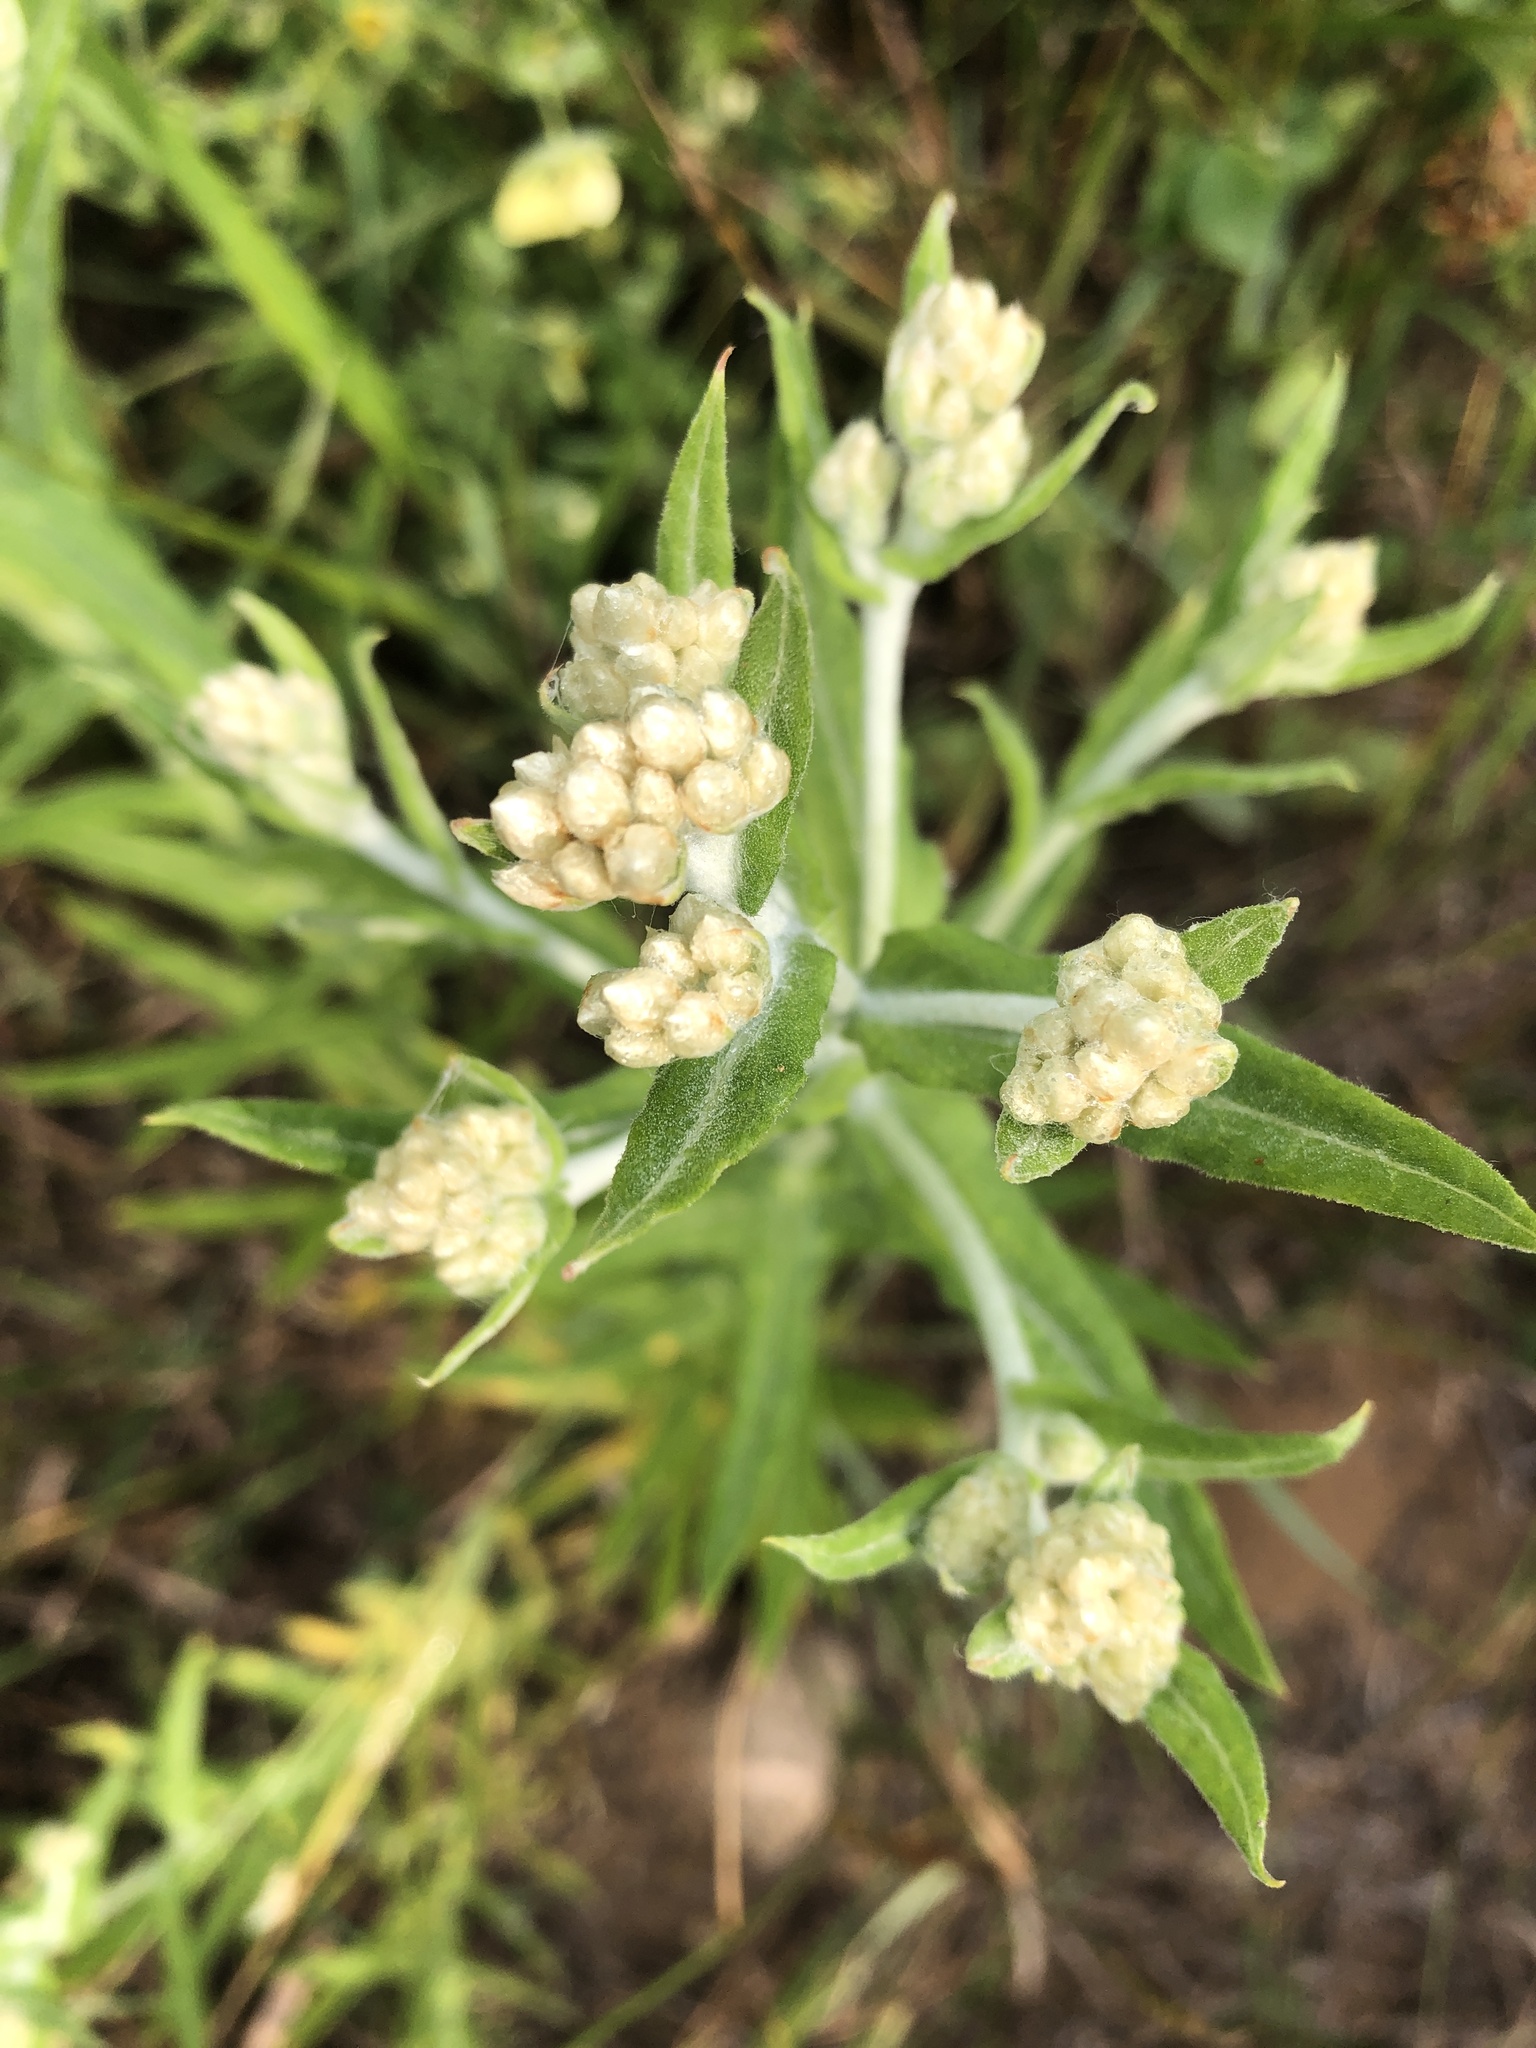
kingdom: Plantae
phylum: Tracheophyta
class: Magnoliopsida
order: Asterales
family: Asteraceae
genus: Pseudognaphalium
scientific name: Pseudognaphalium macounii
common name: Clammy cudweed
